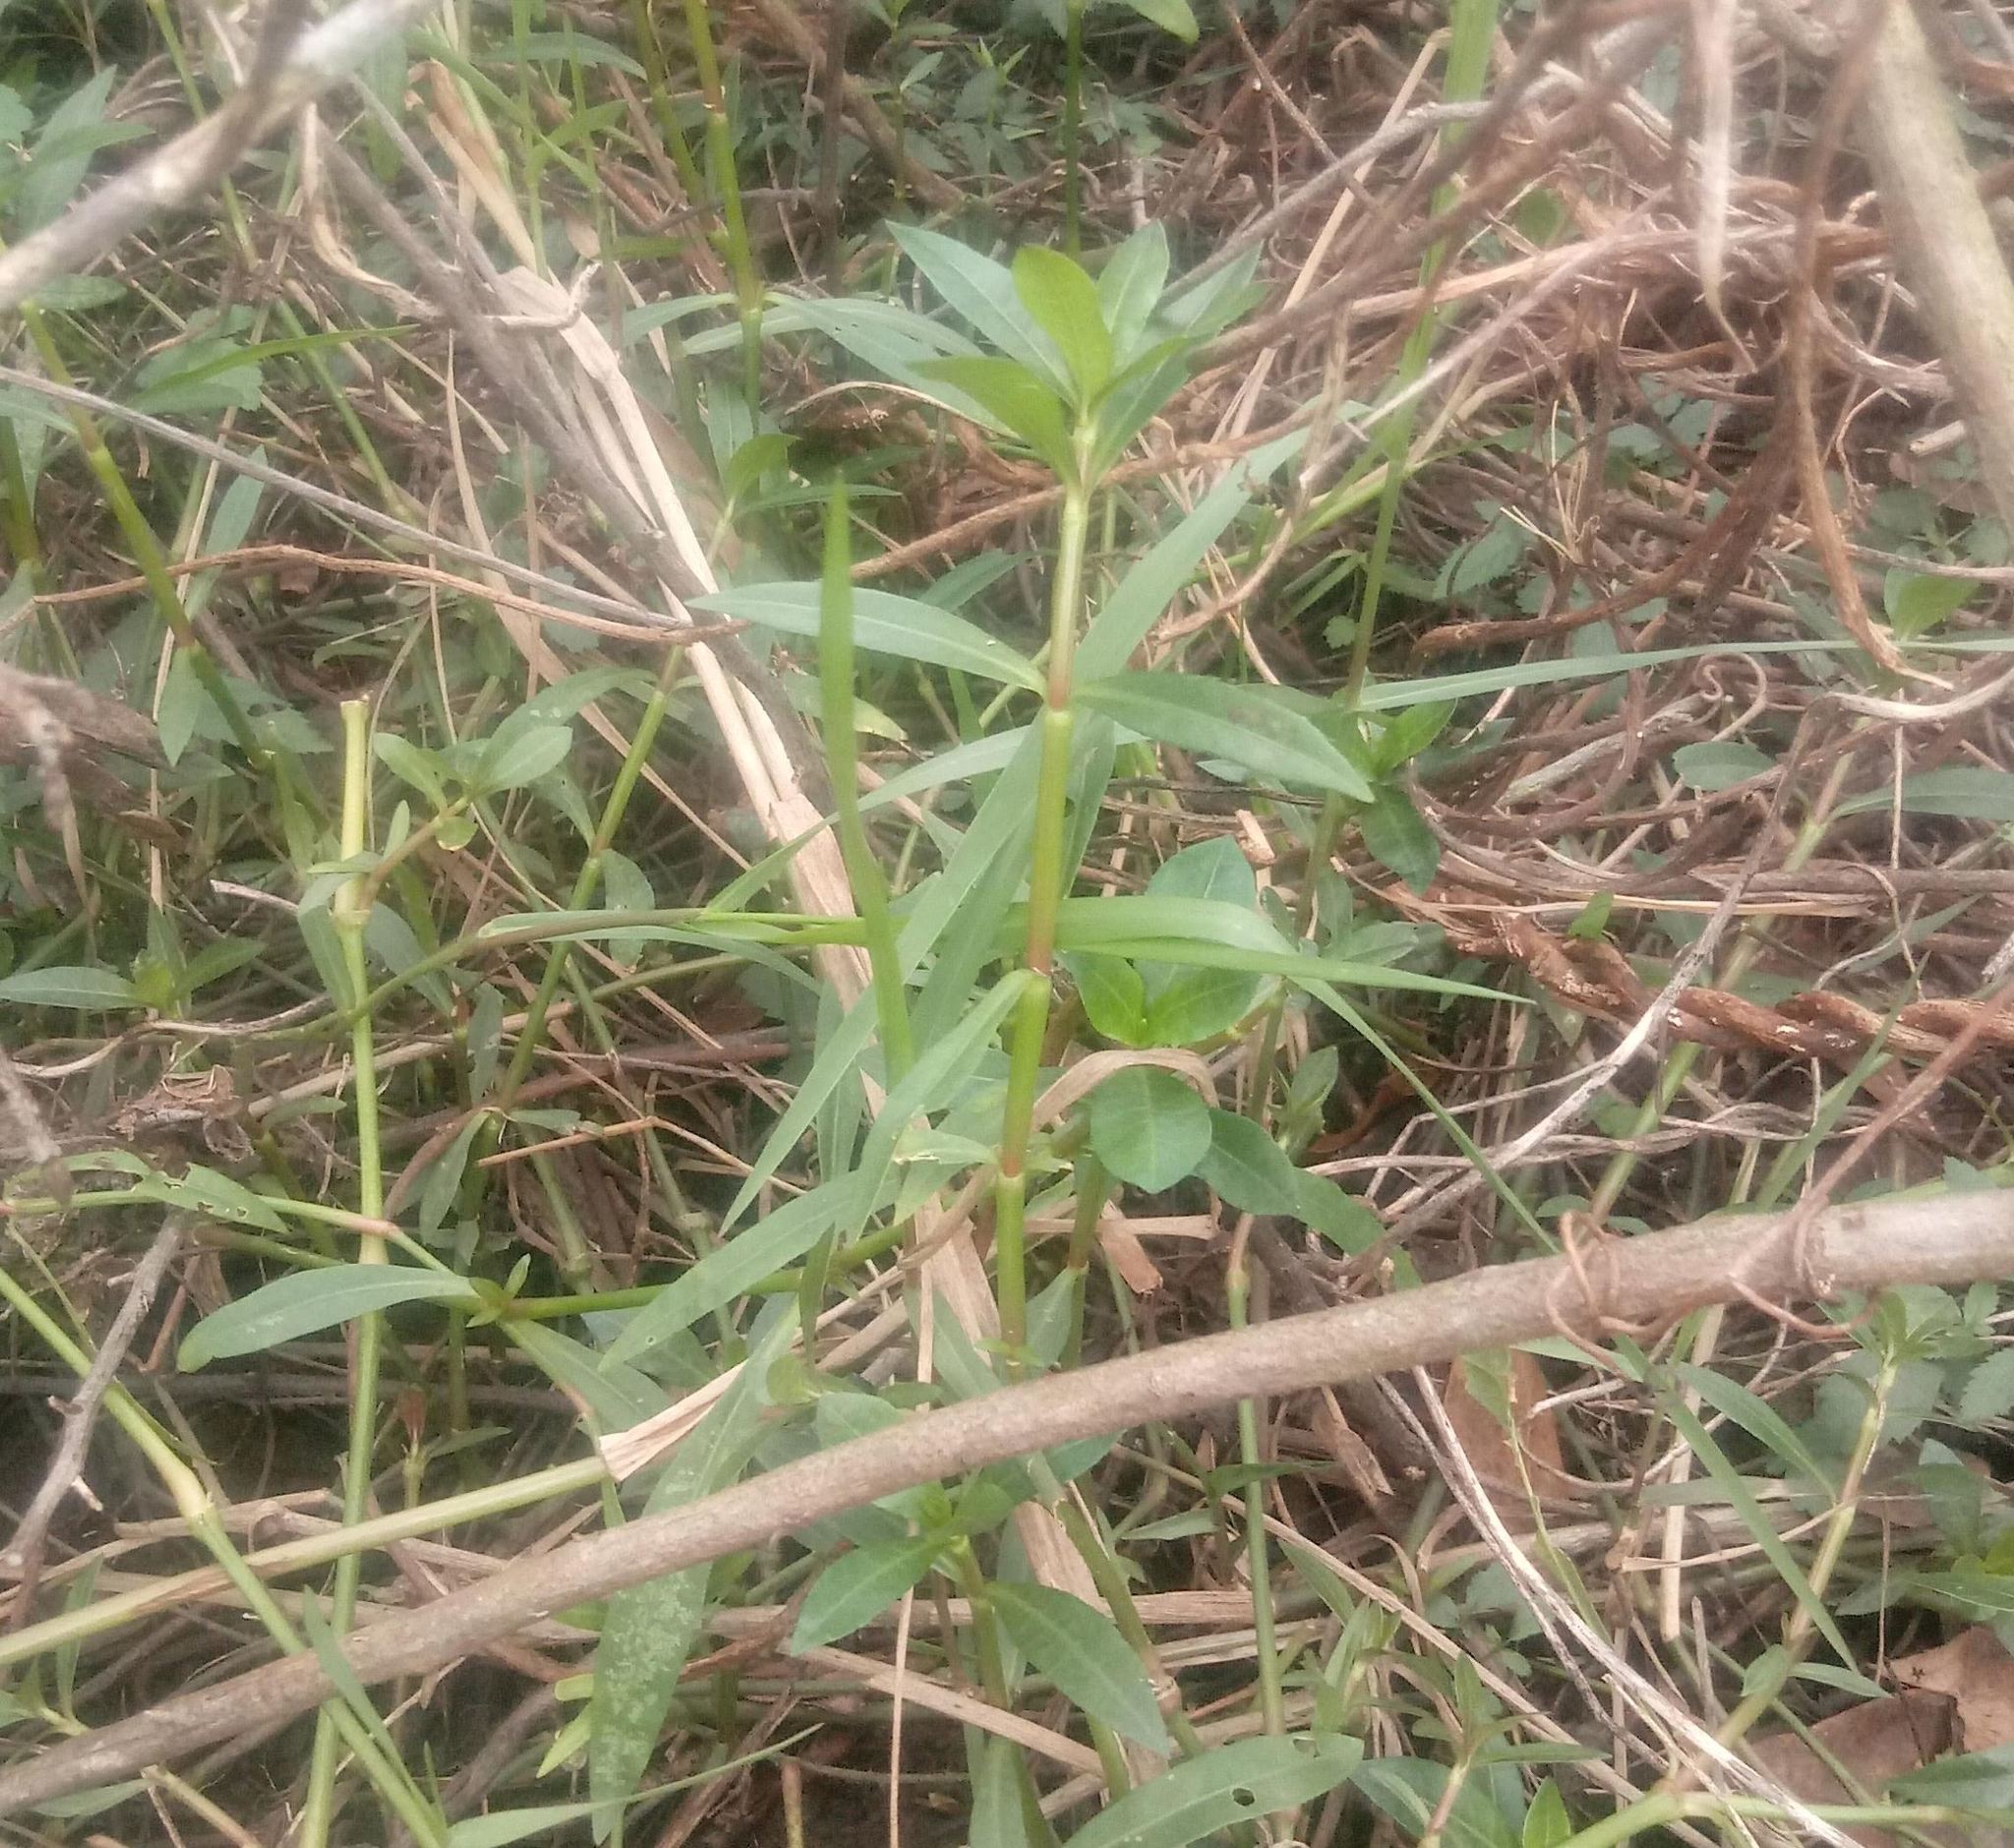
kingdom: Plantae
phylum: Tracheophyta
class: Magnoliopsida
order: Caryophyllales
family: Amaranthaceae
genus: Alternanthera
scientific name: Alternanthera philoxeroides
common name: Alligatorweed
